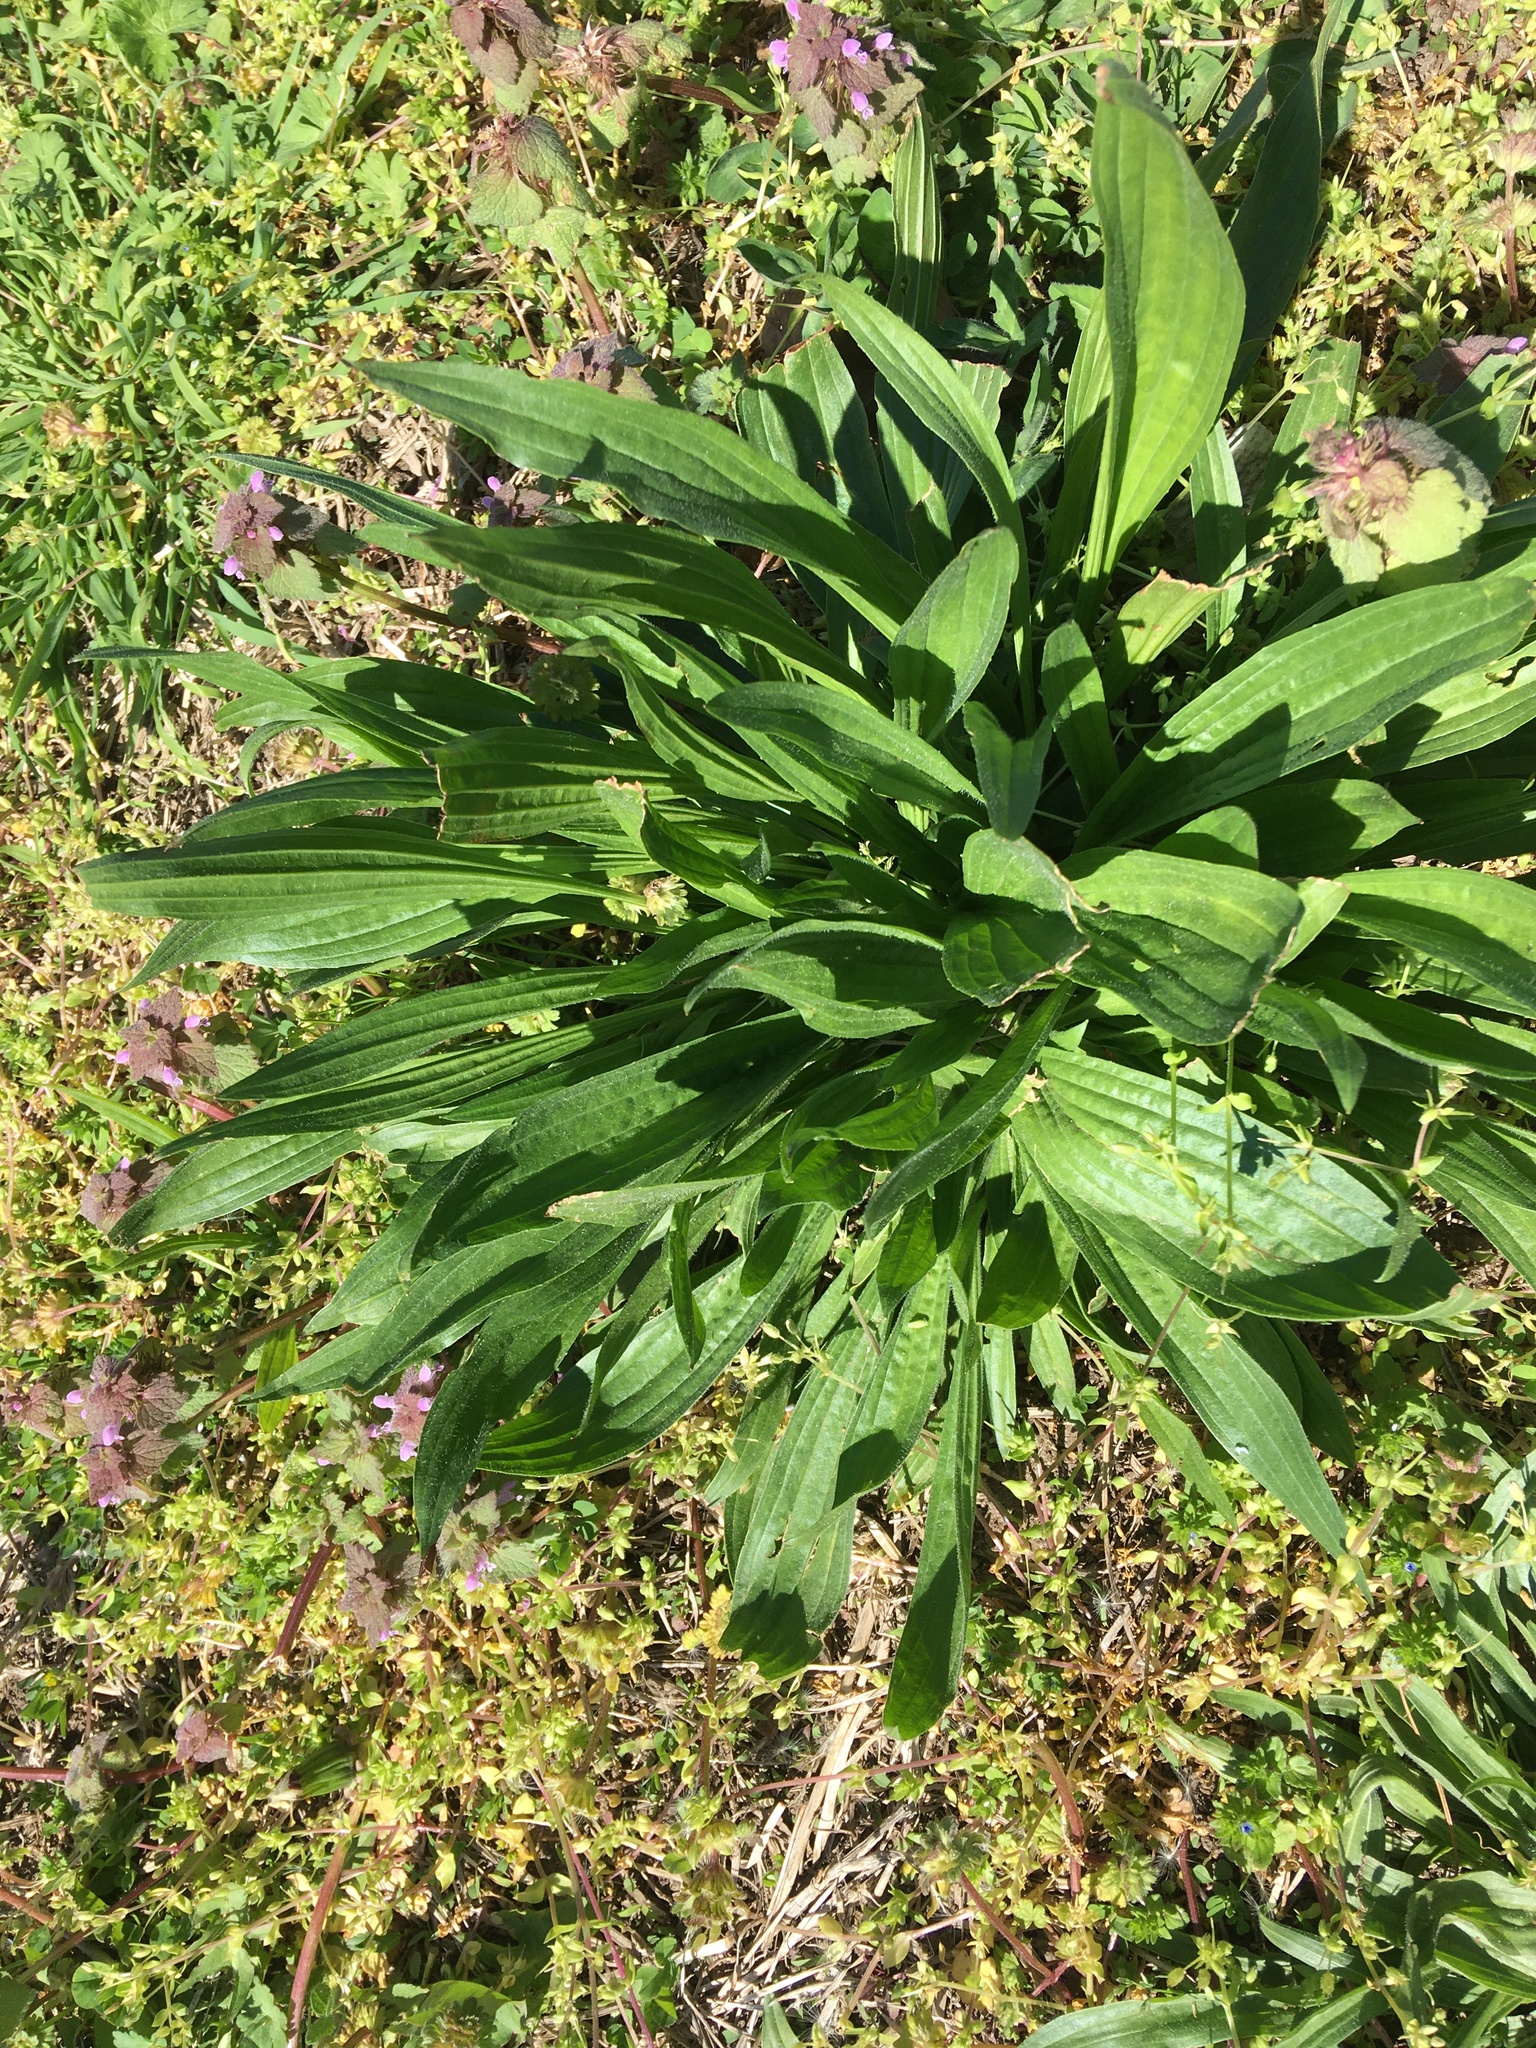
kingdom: Plantae
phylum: Tracheophyta
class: Magnoliopsida
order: Lamiales
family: Plantaginaceae
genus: Plantago
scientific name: Plantago lanceolata
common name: Ribwort plantain
